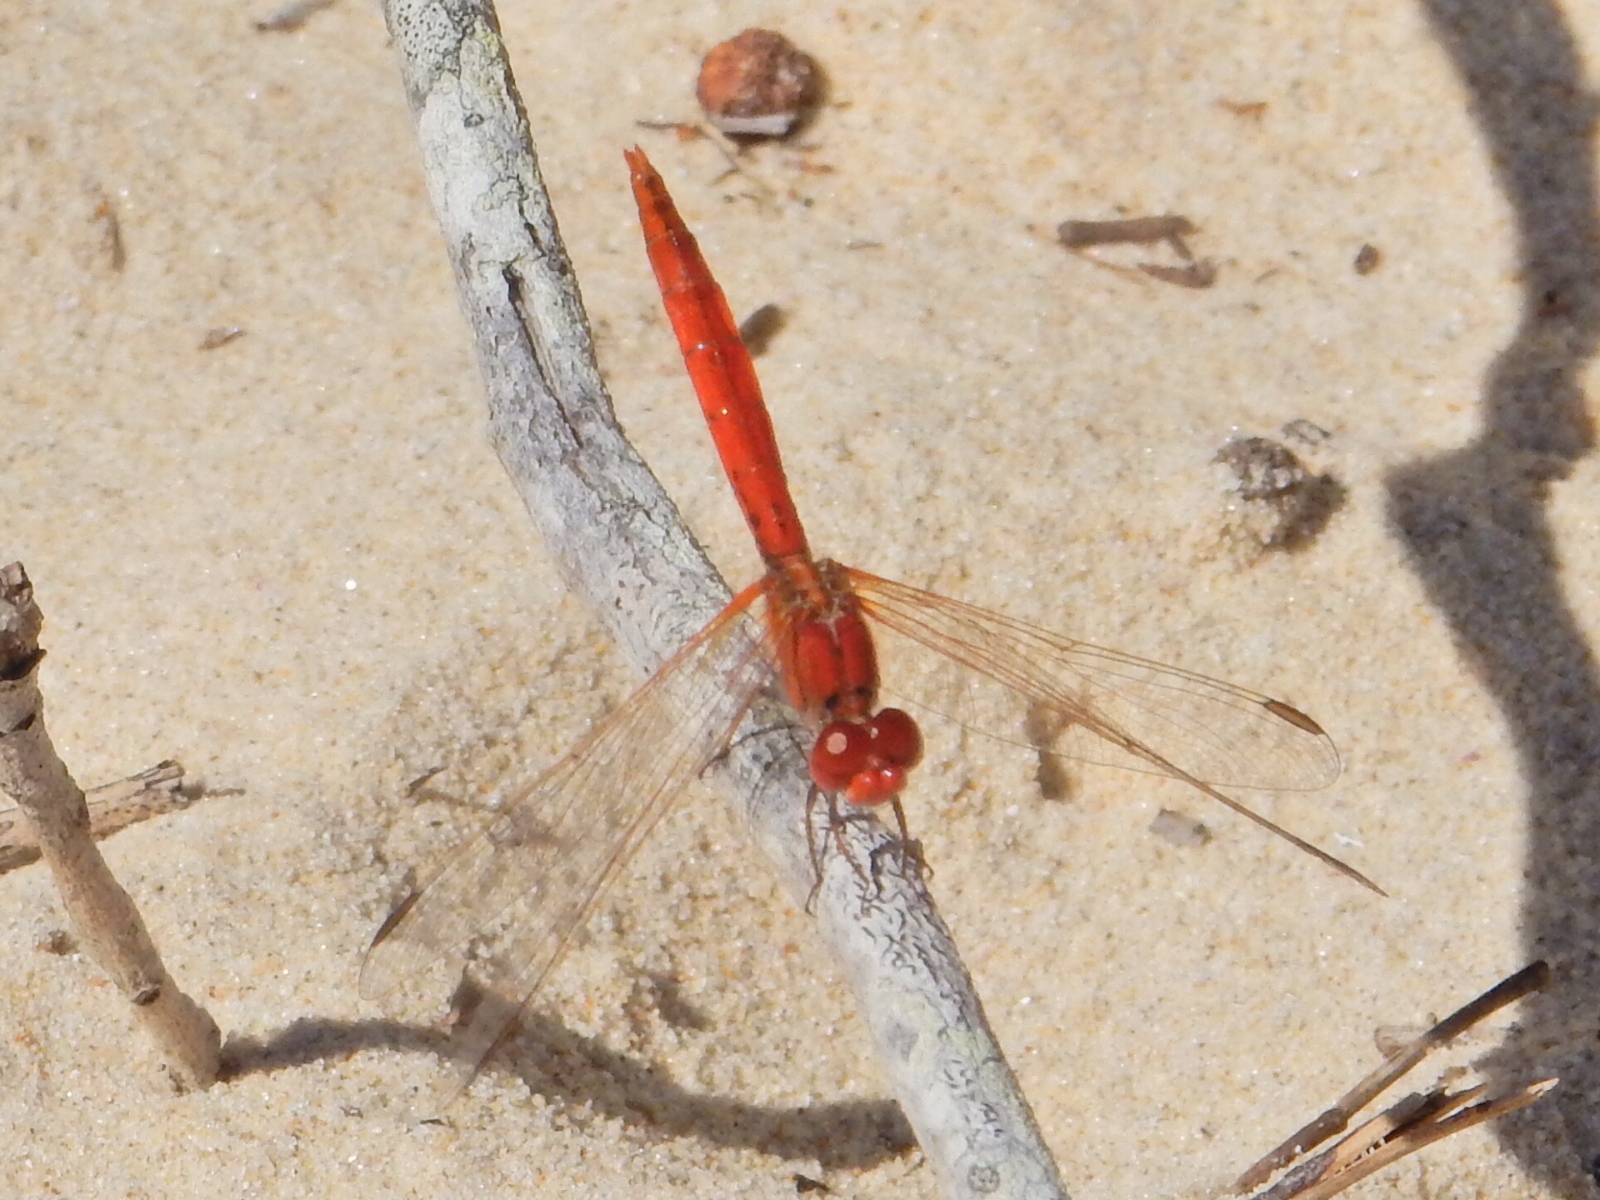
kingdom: Animalia
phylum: Arthropoda
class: Insecta
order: Odonata
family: Libellulidae
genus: Diplacodes
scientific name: Diplacodes haematodes
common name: Scarlet percher
